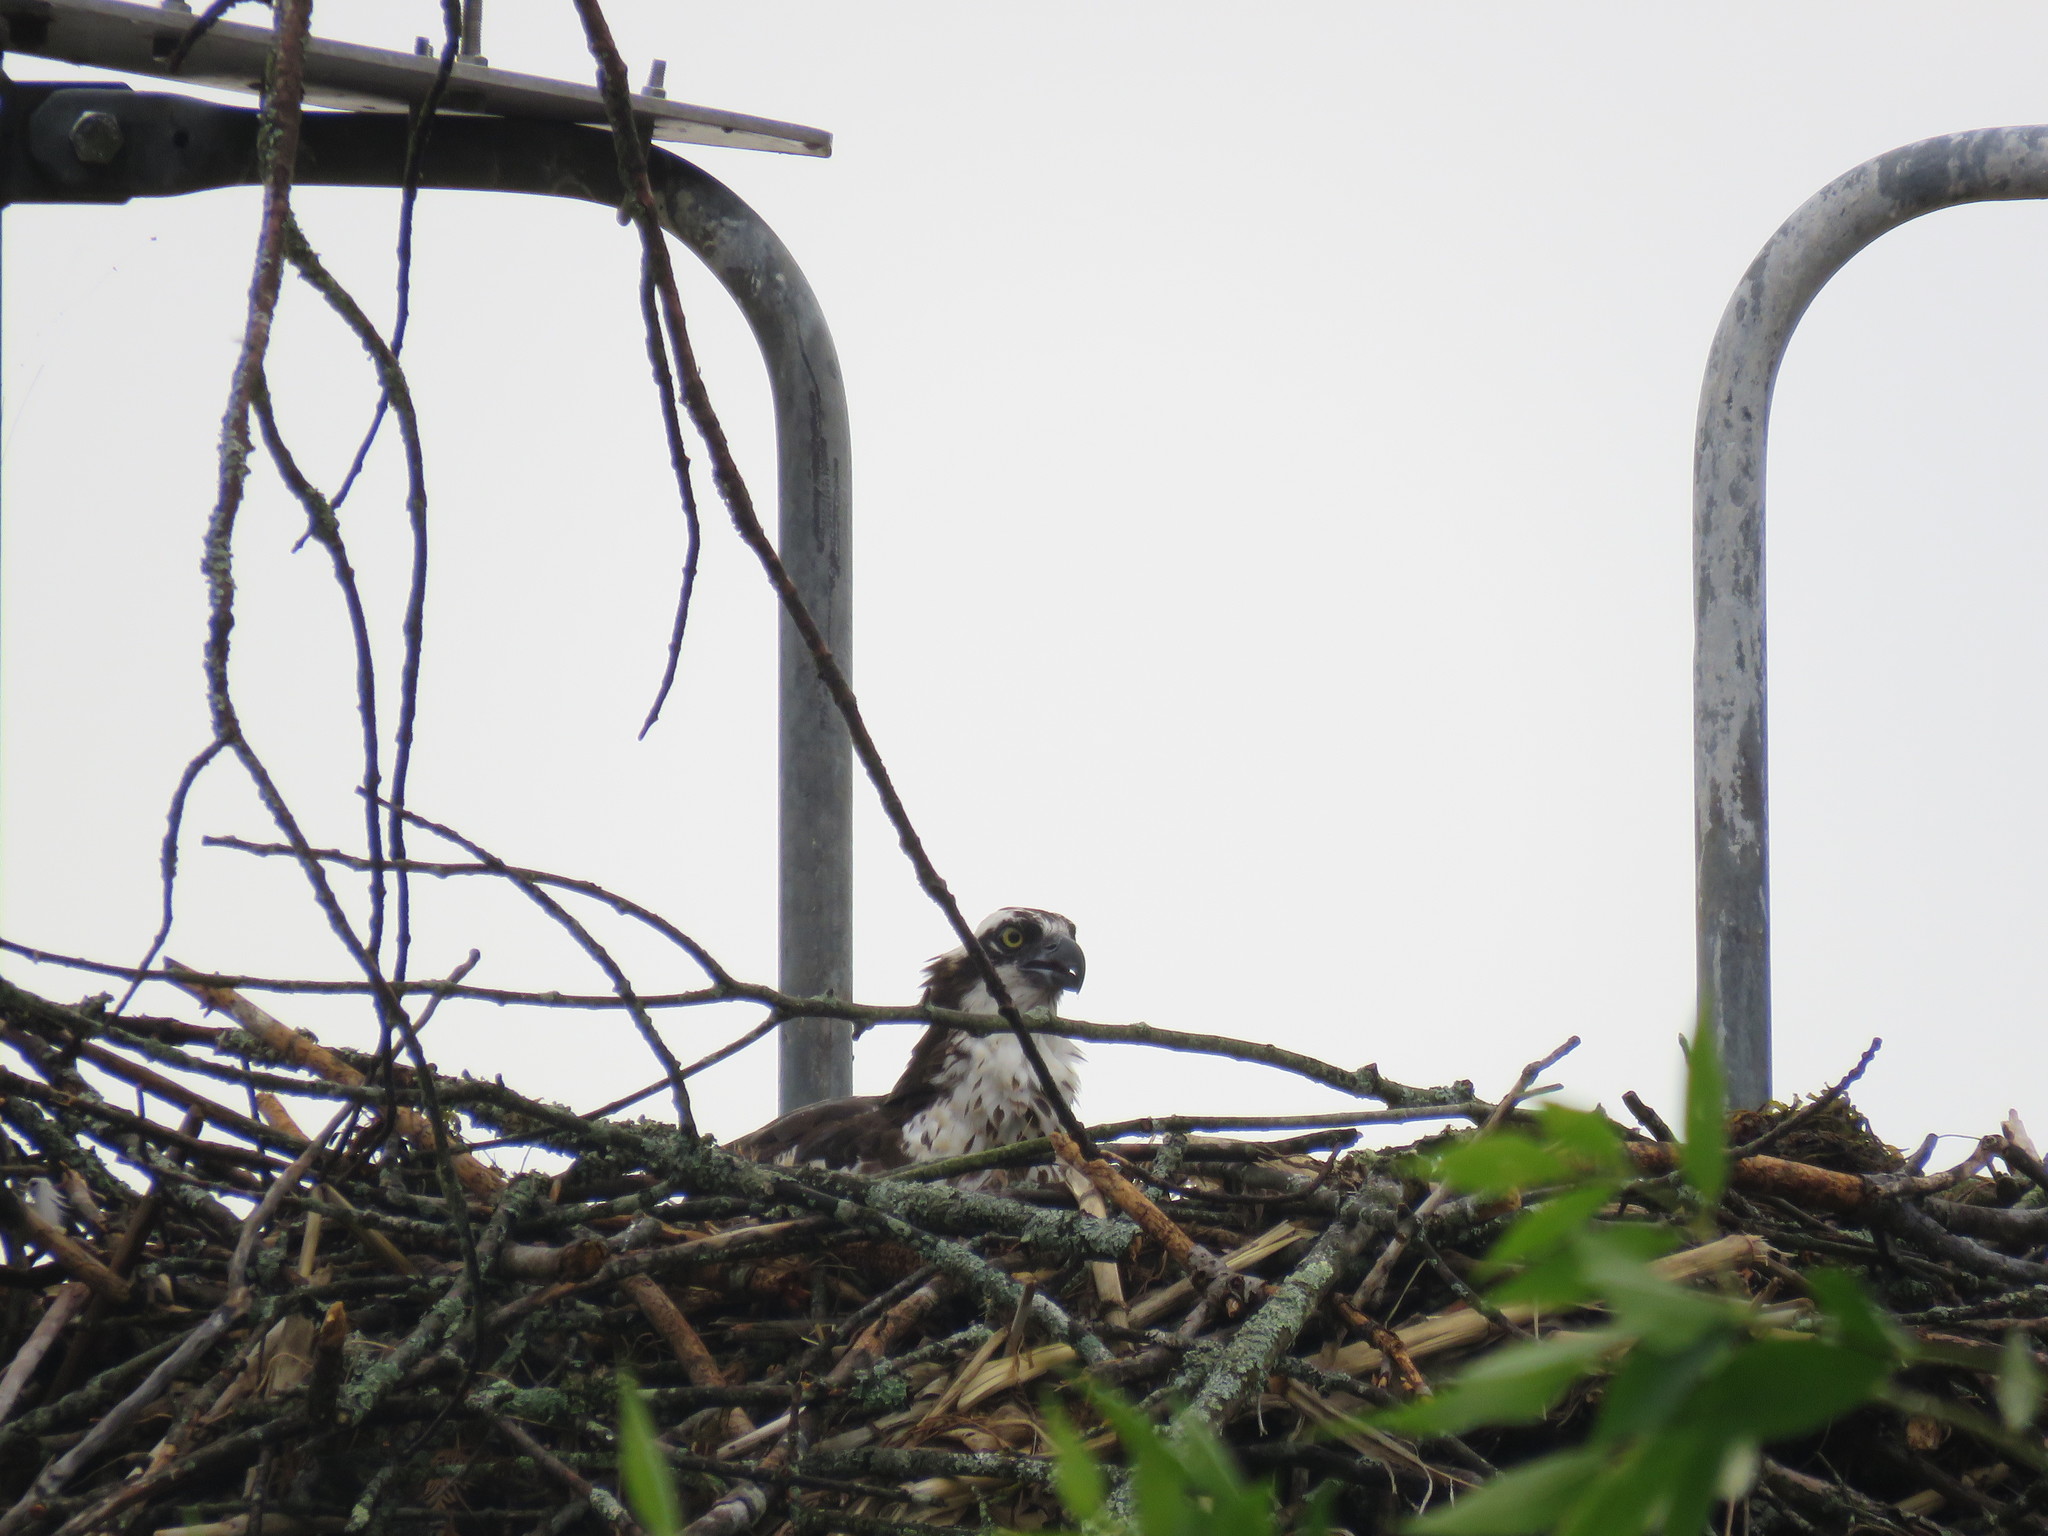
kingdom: Animalia
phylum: Chordata
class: Aves
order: Accipitriformes
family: Pandionidae
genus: Pandion
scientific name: Pandion haliaetus
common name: Osprey
